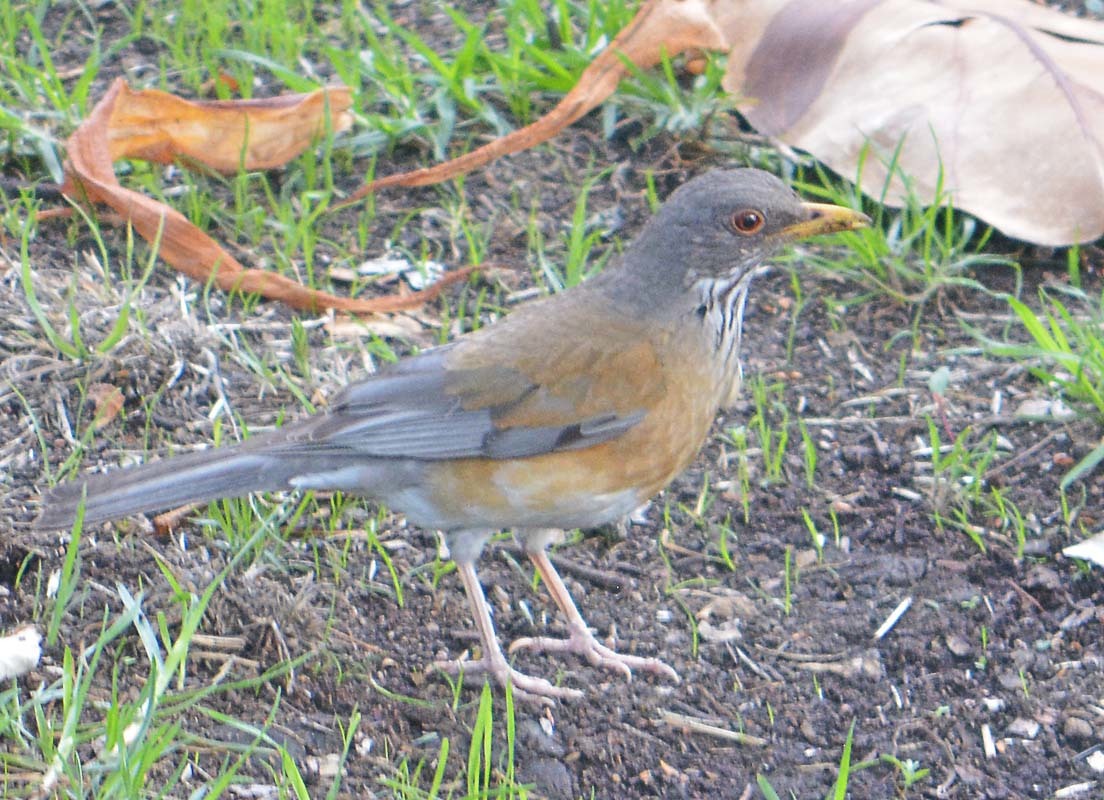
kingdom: Animalia
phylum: Chordata
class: Aves
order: Passeriformes
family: Turdidae
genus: Turdus
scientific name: Turdus rufopalliatus
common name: Rufous-backed robin
